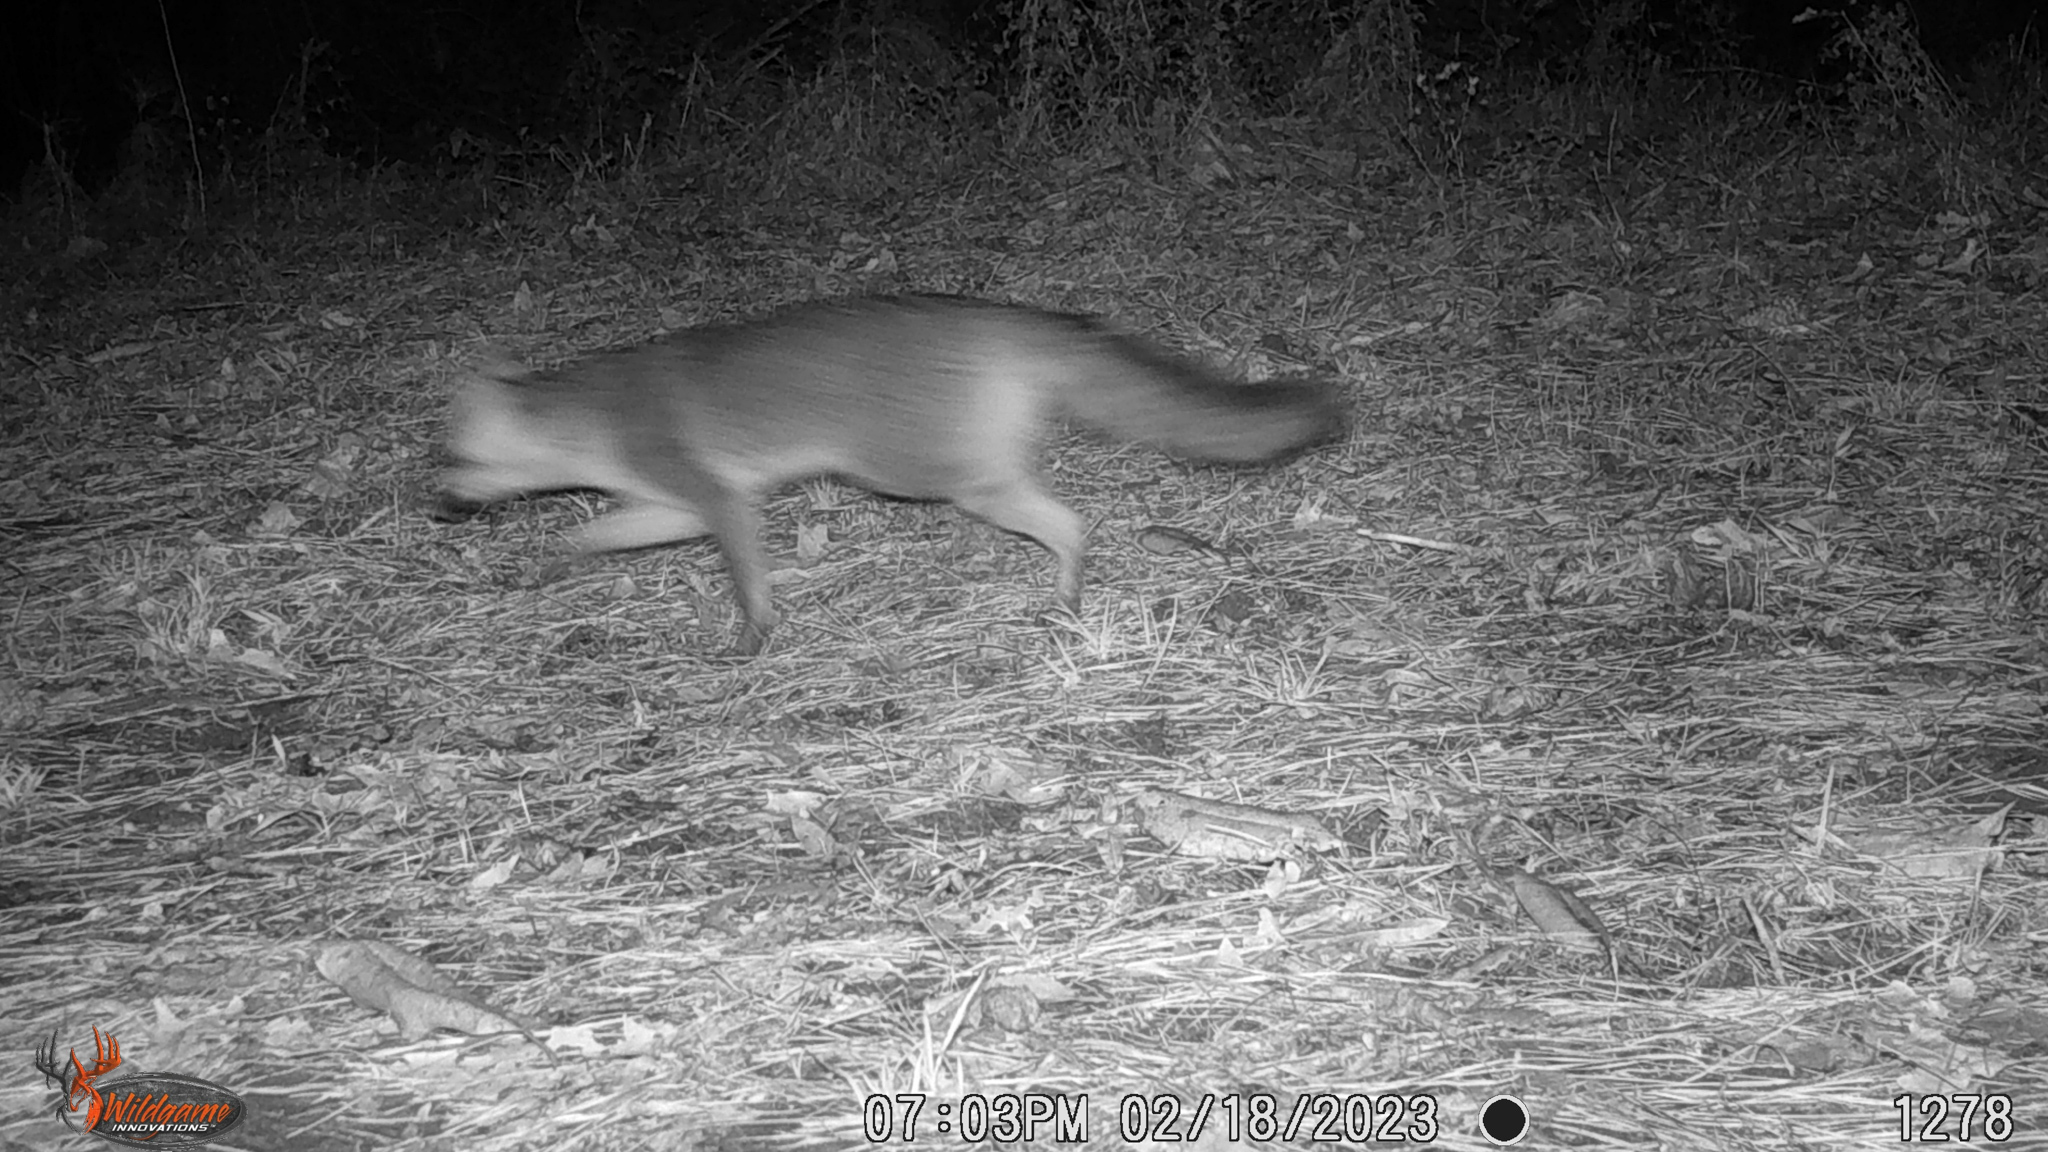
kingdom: Animalia
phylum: Chordata
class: Mammalia
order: Carnivora
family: Canidae
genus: Urocyon
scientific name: Urocyon cinereoargenteus
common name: Gray fox
